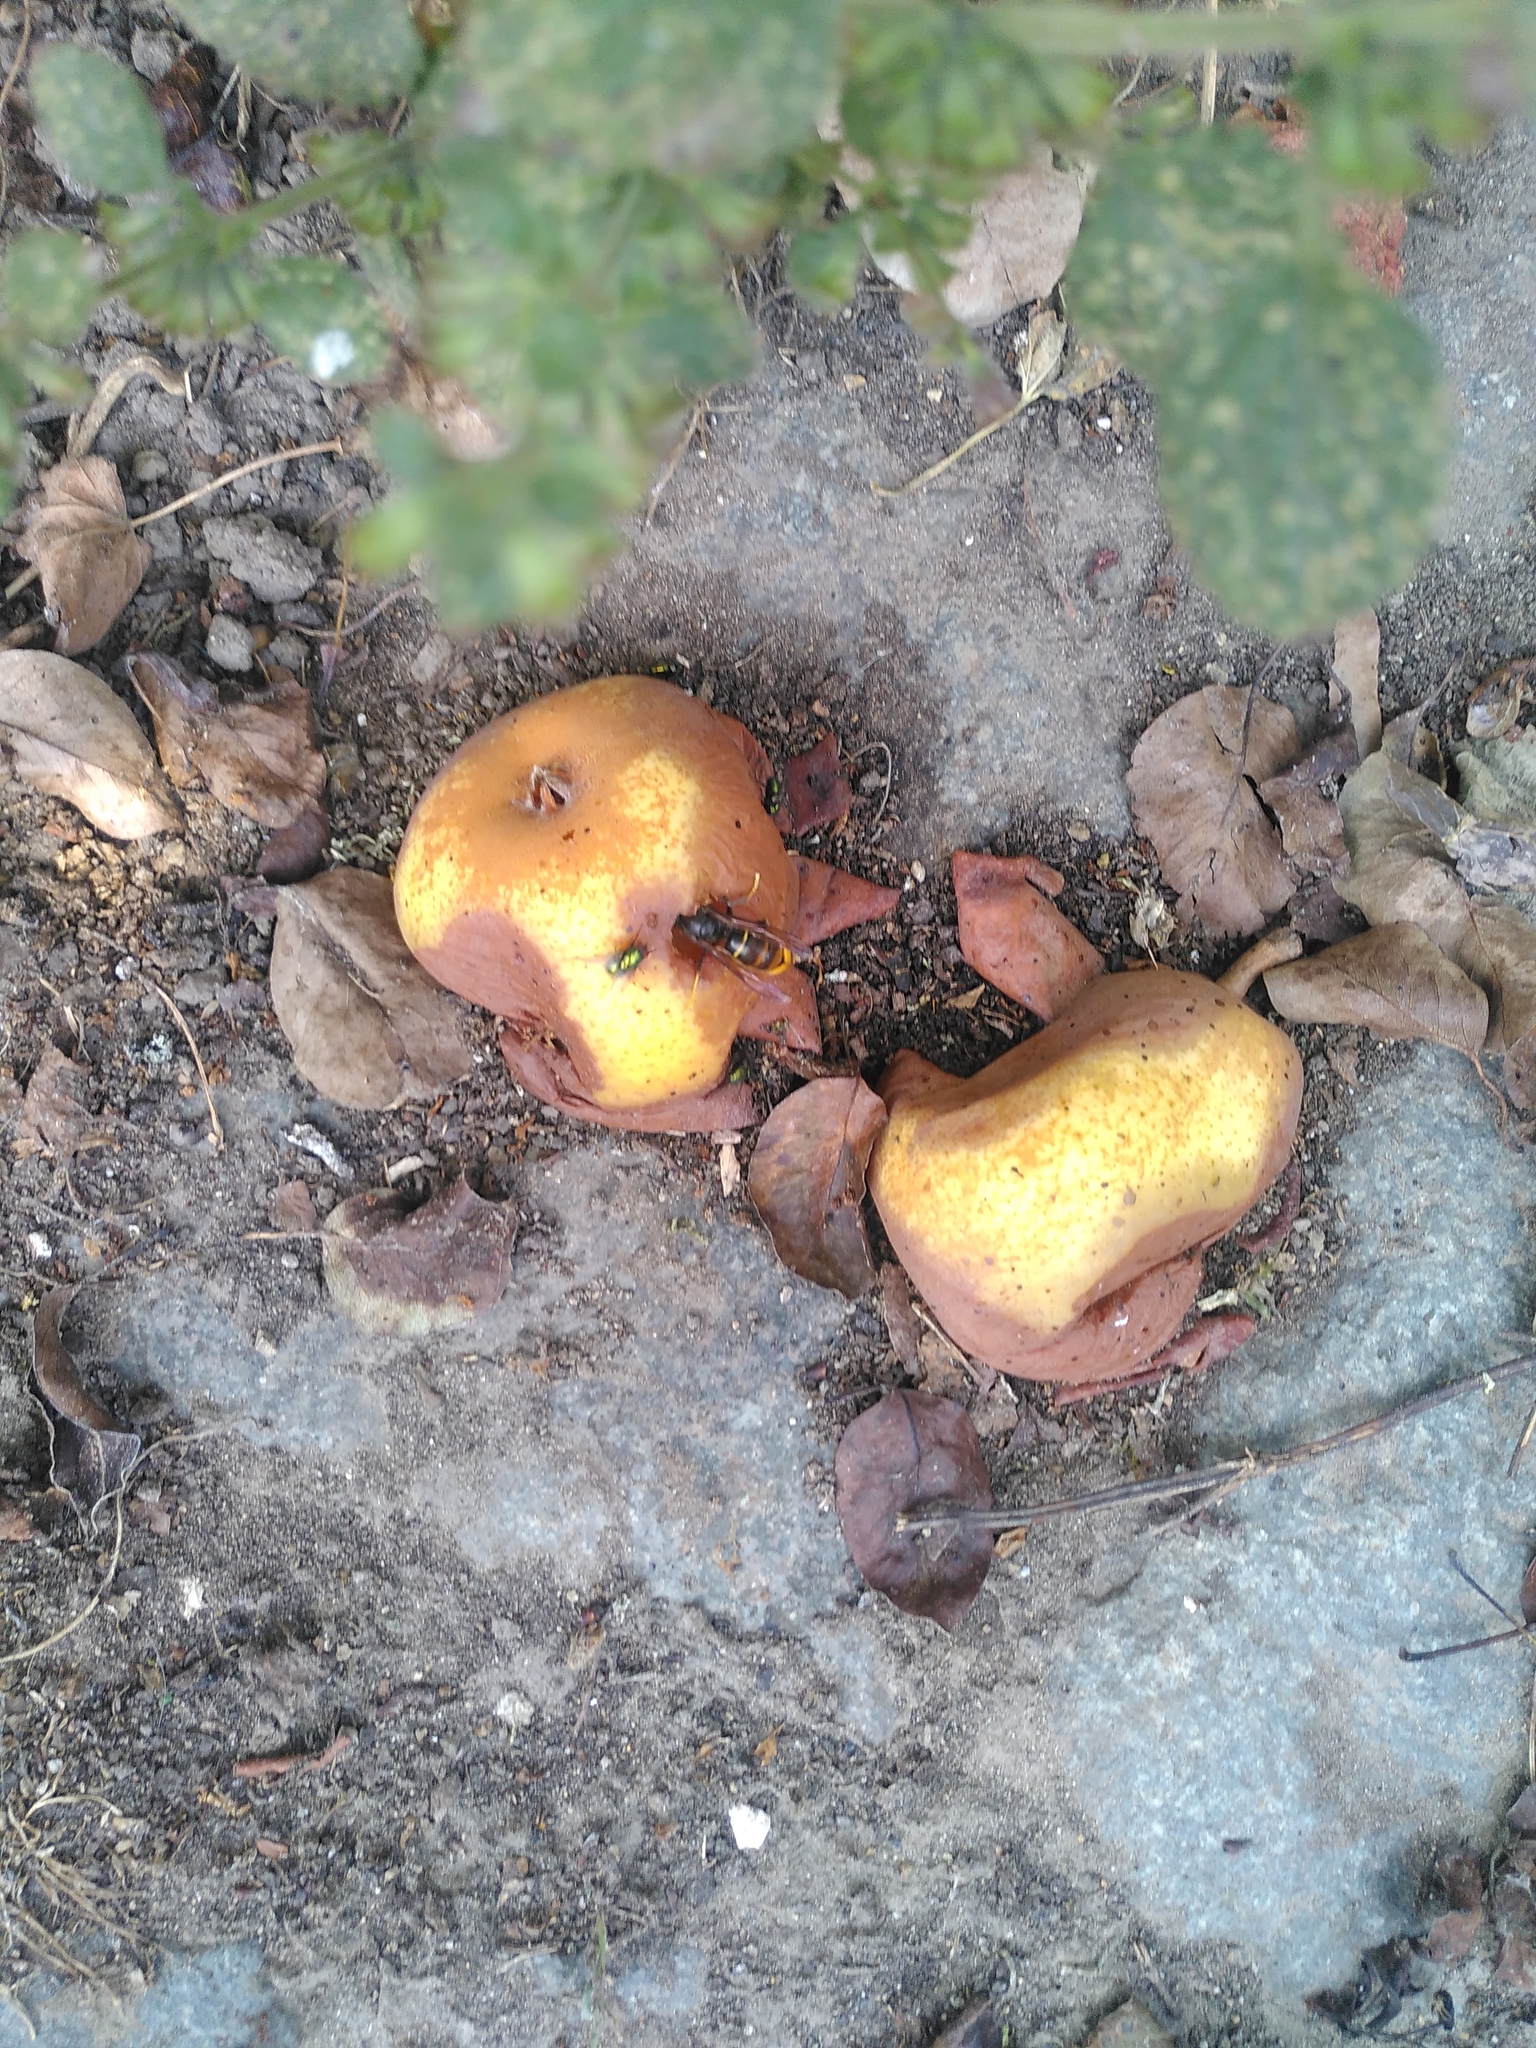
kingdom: Animalia
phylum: Arthropoda
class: Insecta
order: Hymenoptera
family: Vespidae
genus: Vespa
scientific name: Vespa velutina
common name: Asian hornet
